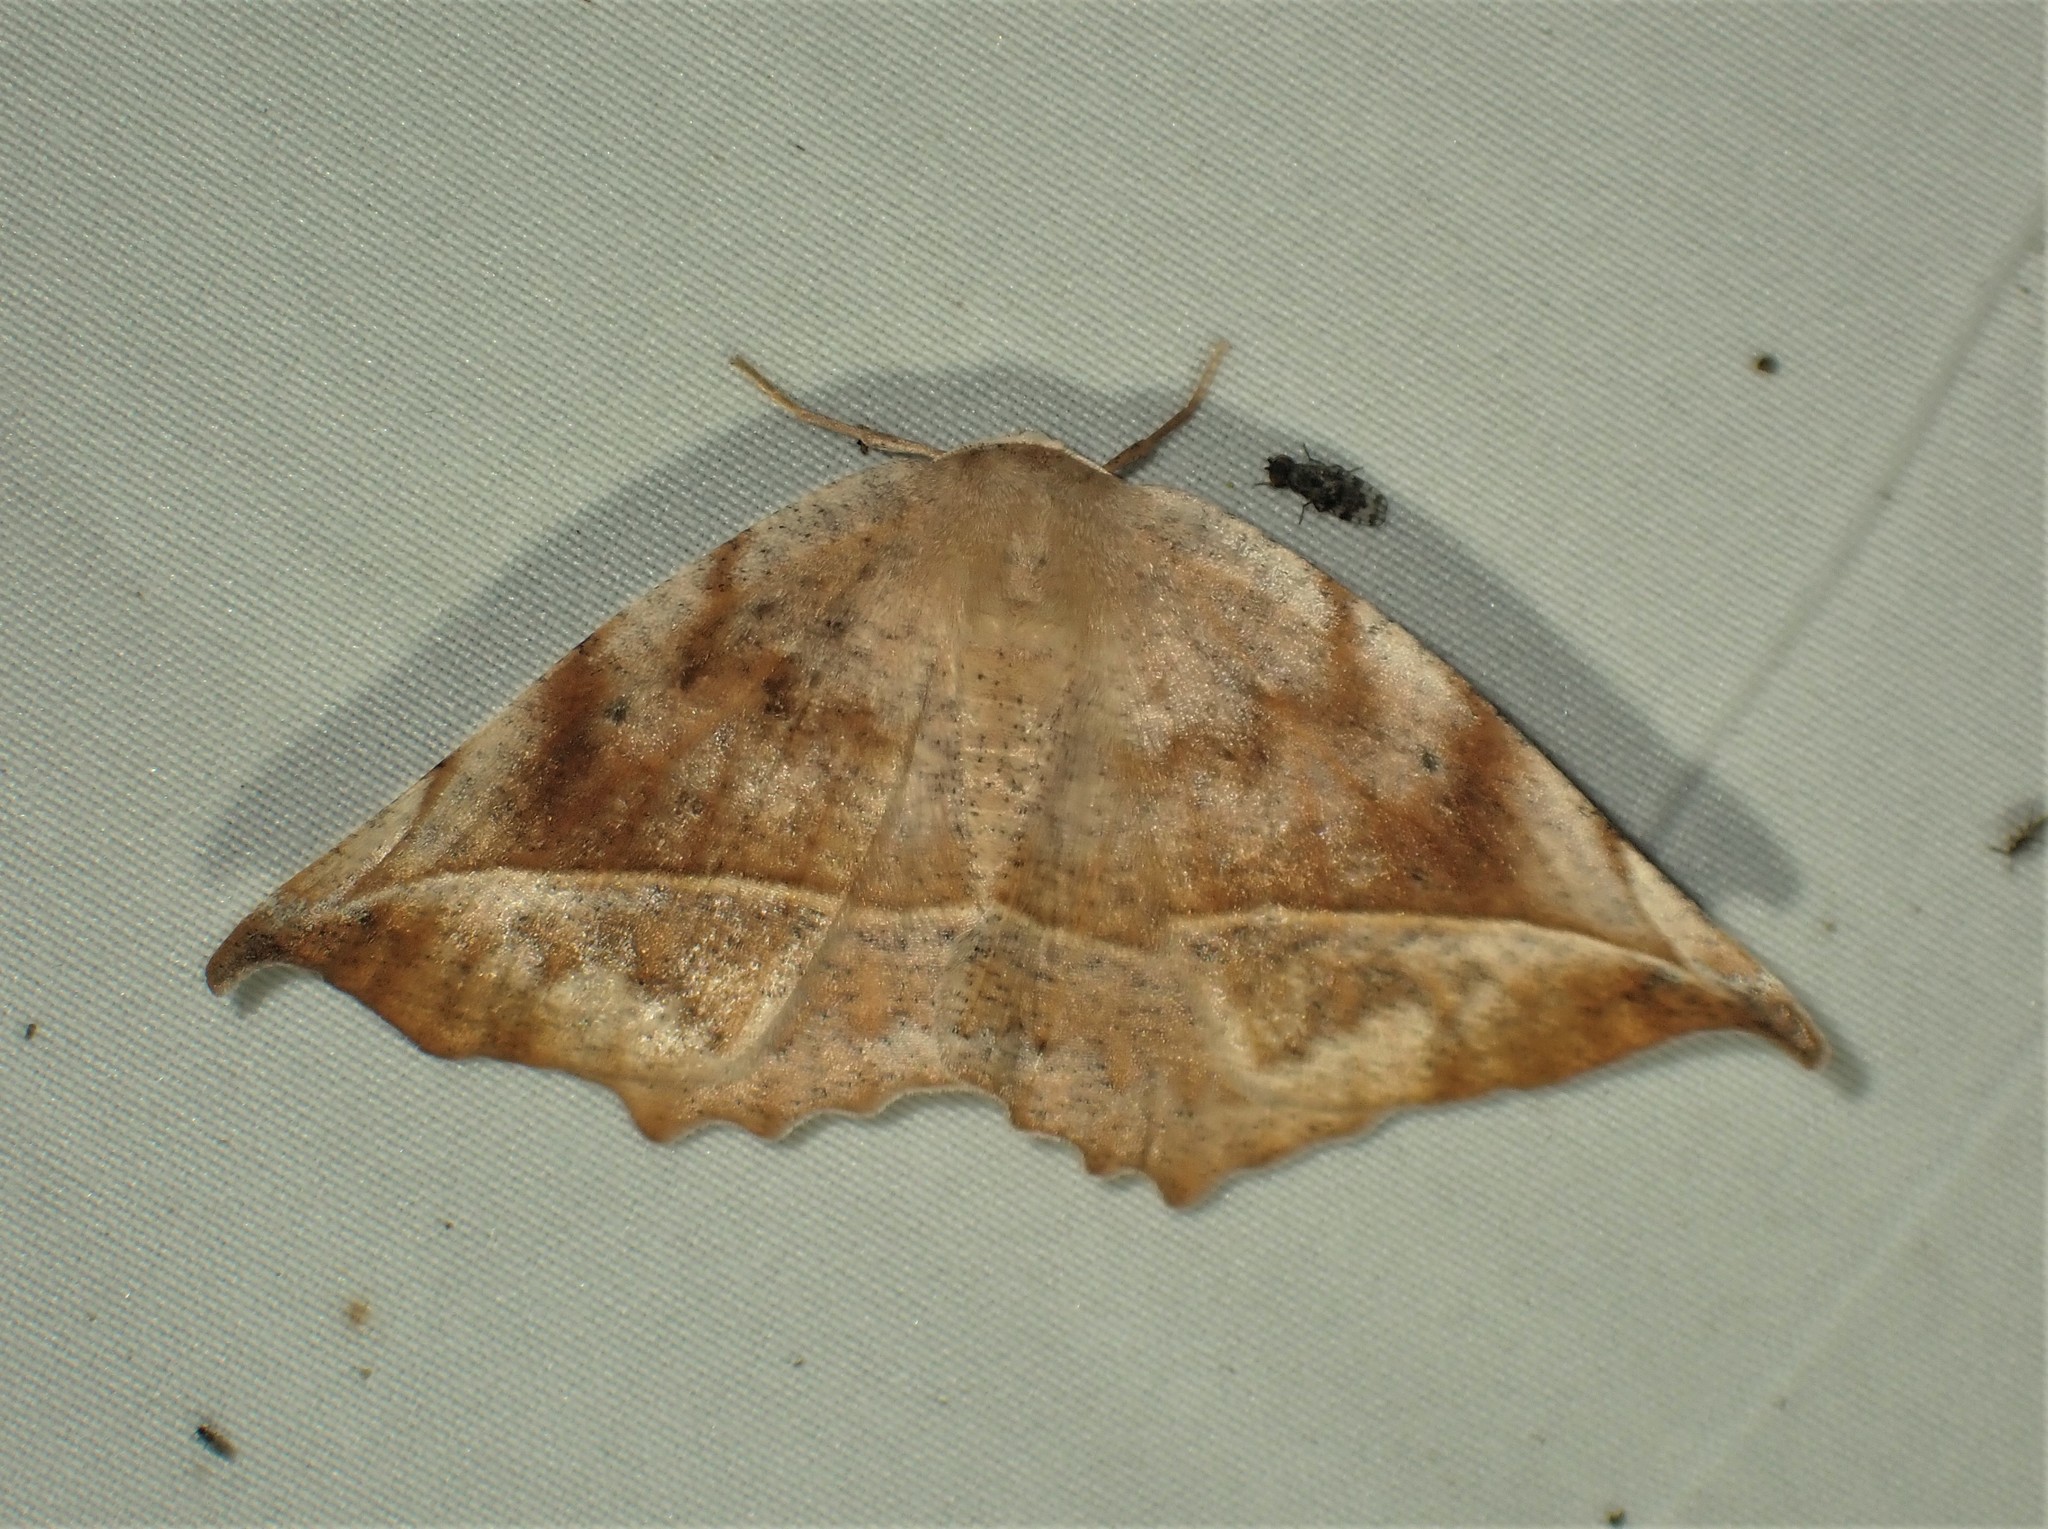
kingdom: Animalia
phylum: Arthropoda
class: Insecta
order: Lepidoptera
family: Geometridae
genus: Eutrapela
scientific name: Eutrapela clemataria
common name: Curved-toothed geometer
